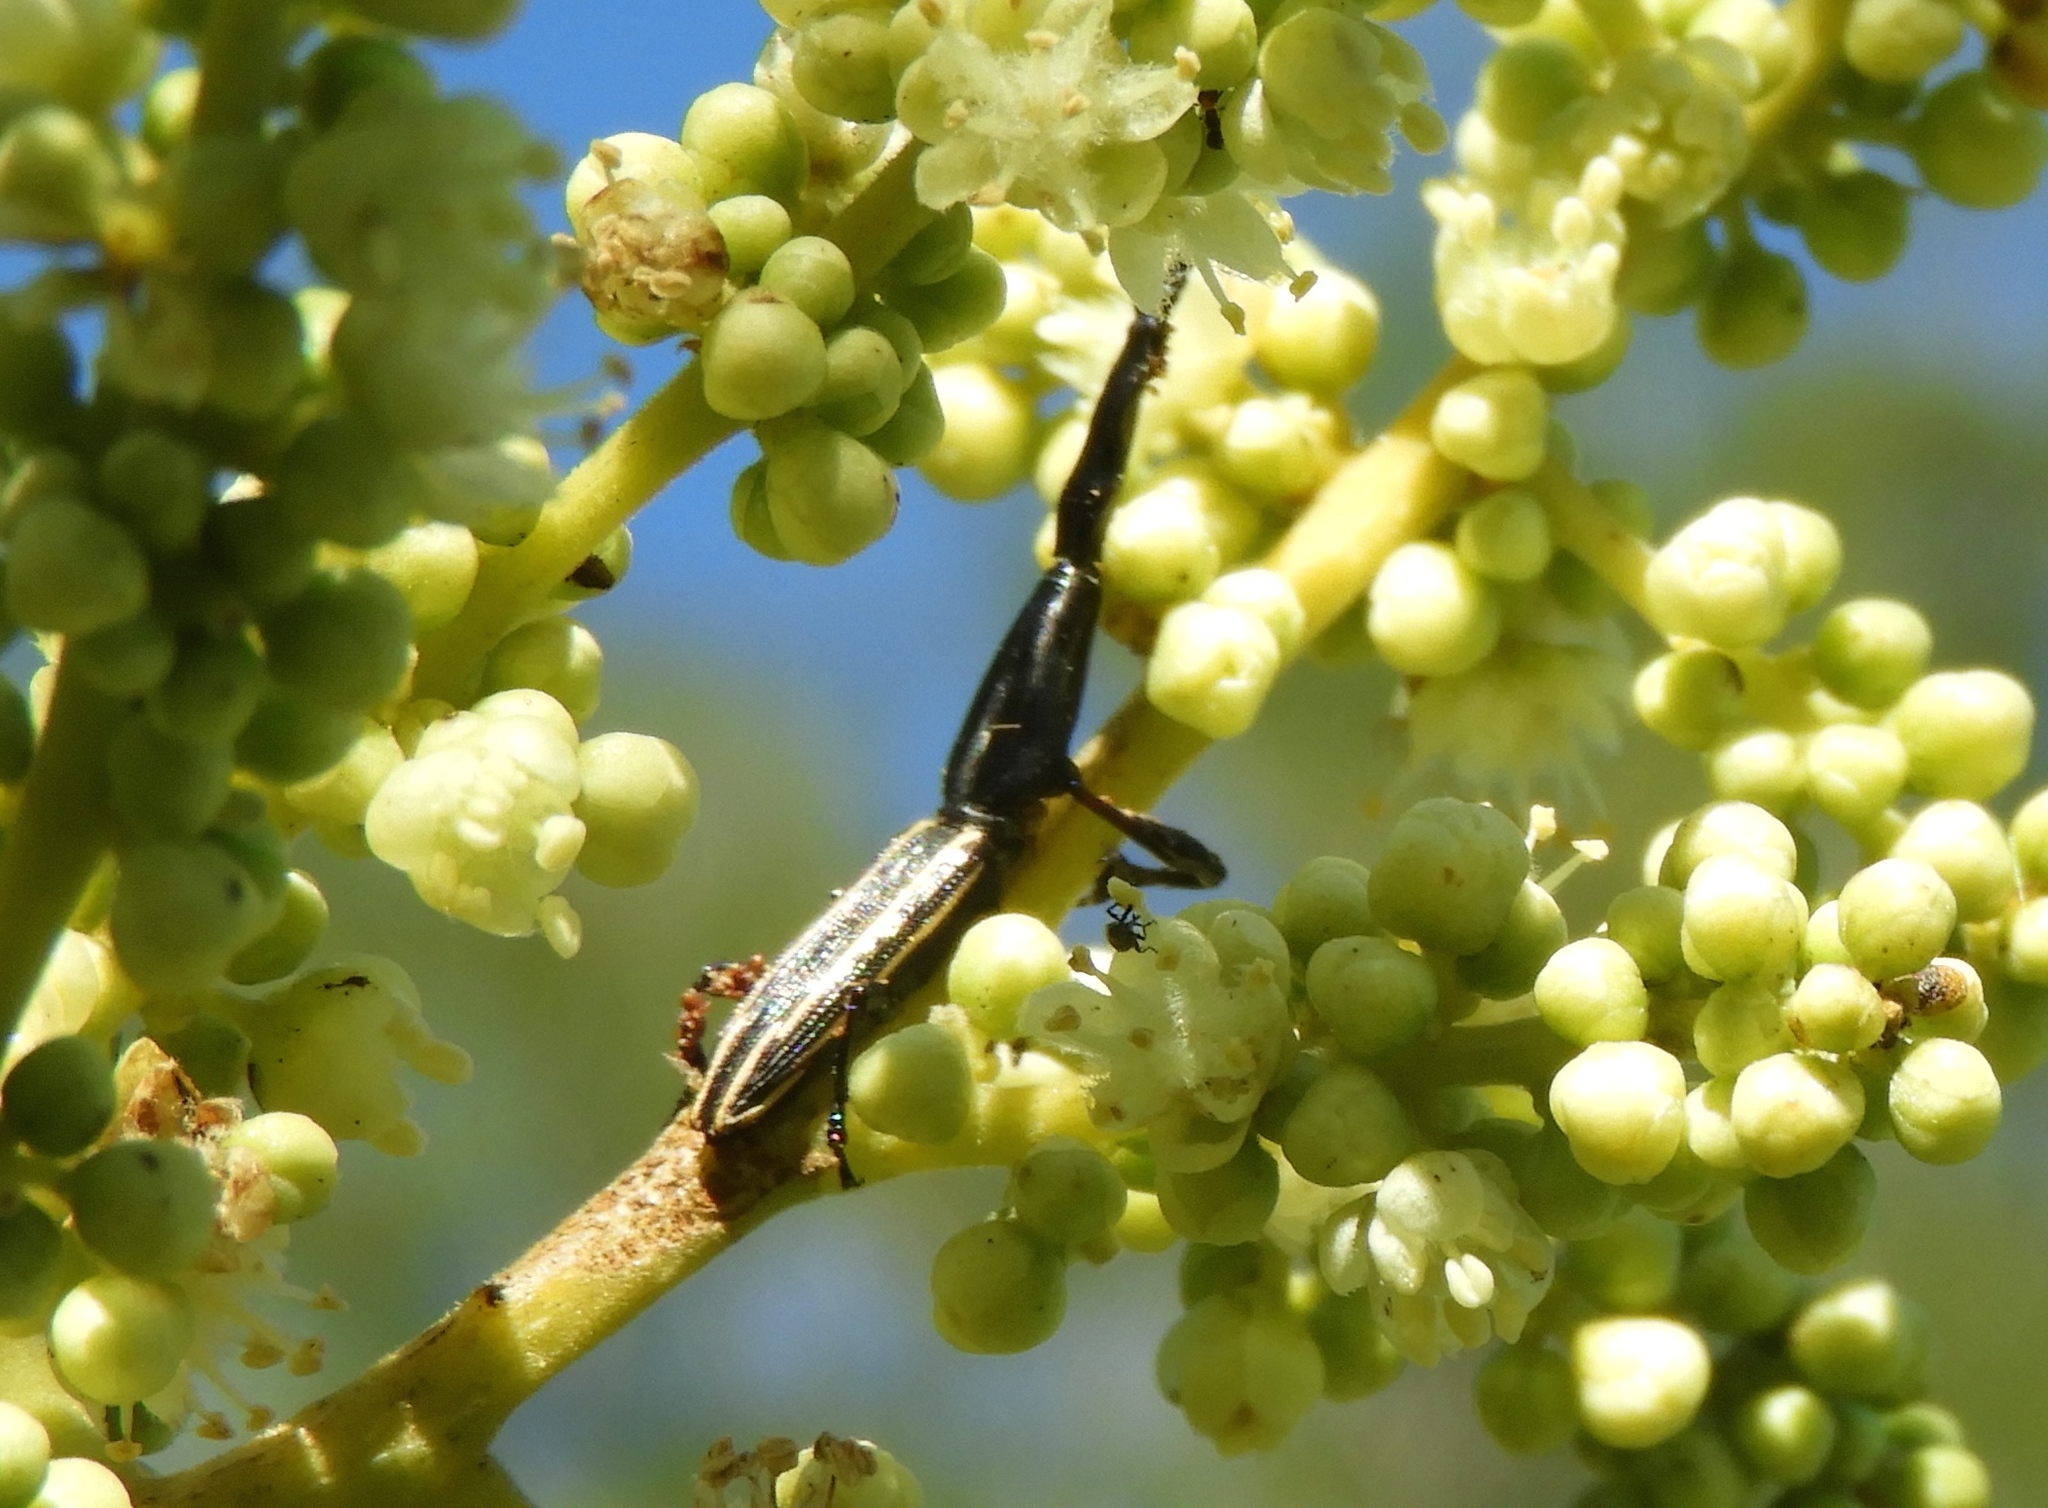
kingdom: Animalia
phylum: Arthropoda
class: Insecta
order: Coleoptera
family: Brentidae
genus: Brentus
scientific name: Brentus
